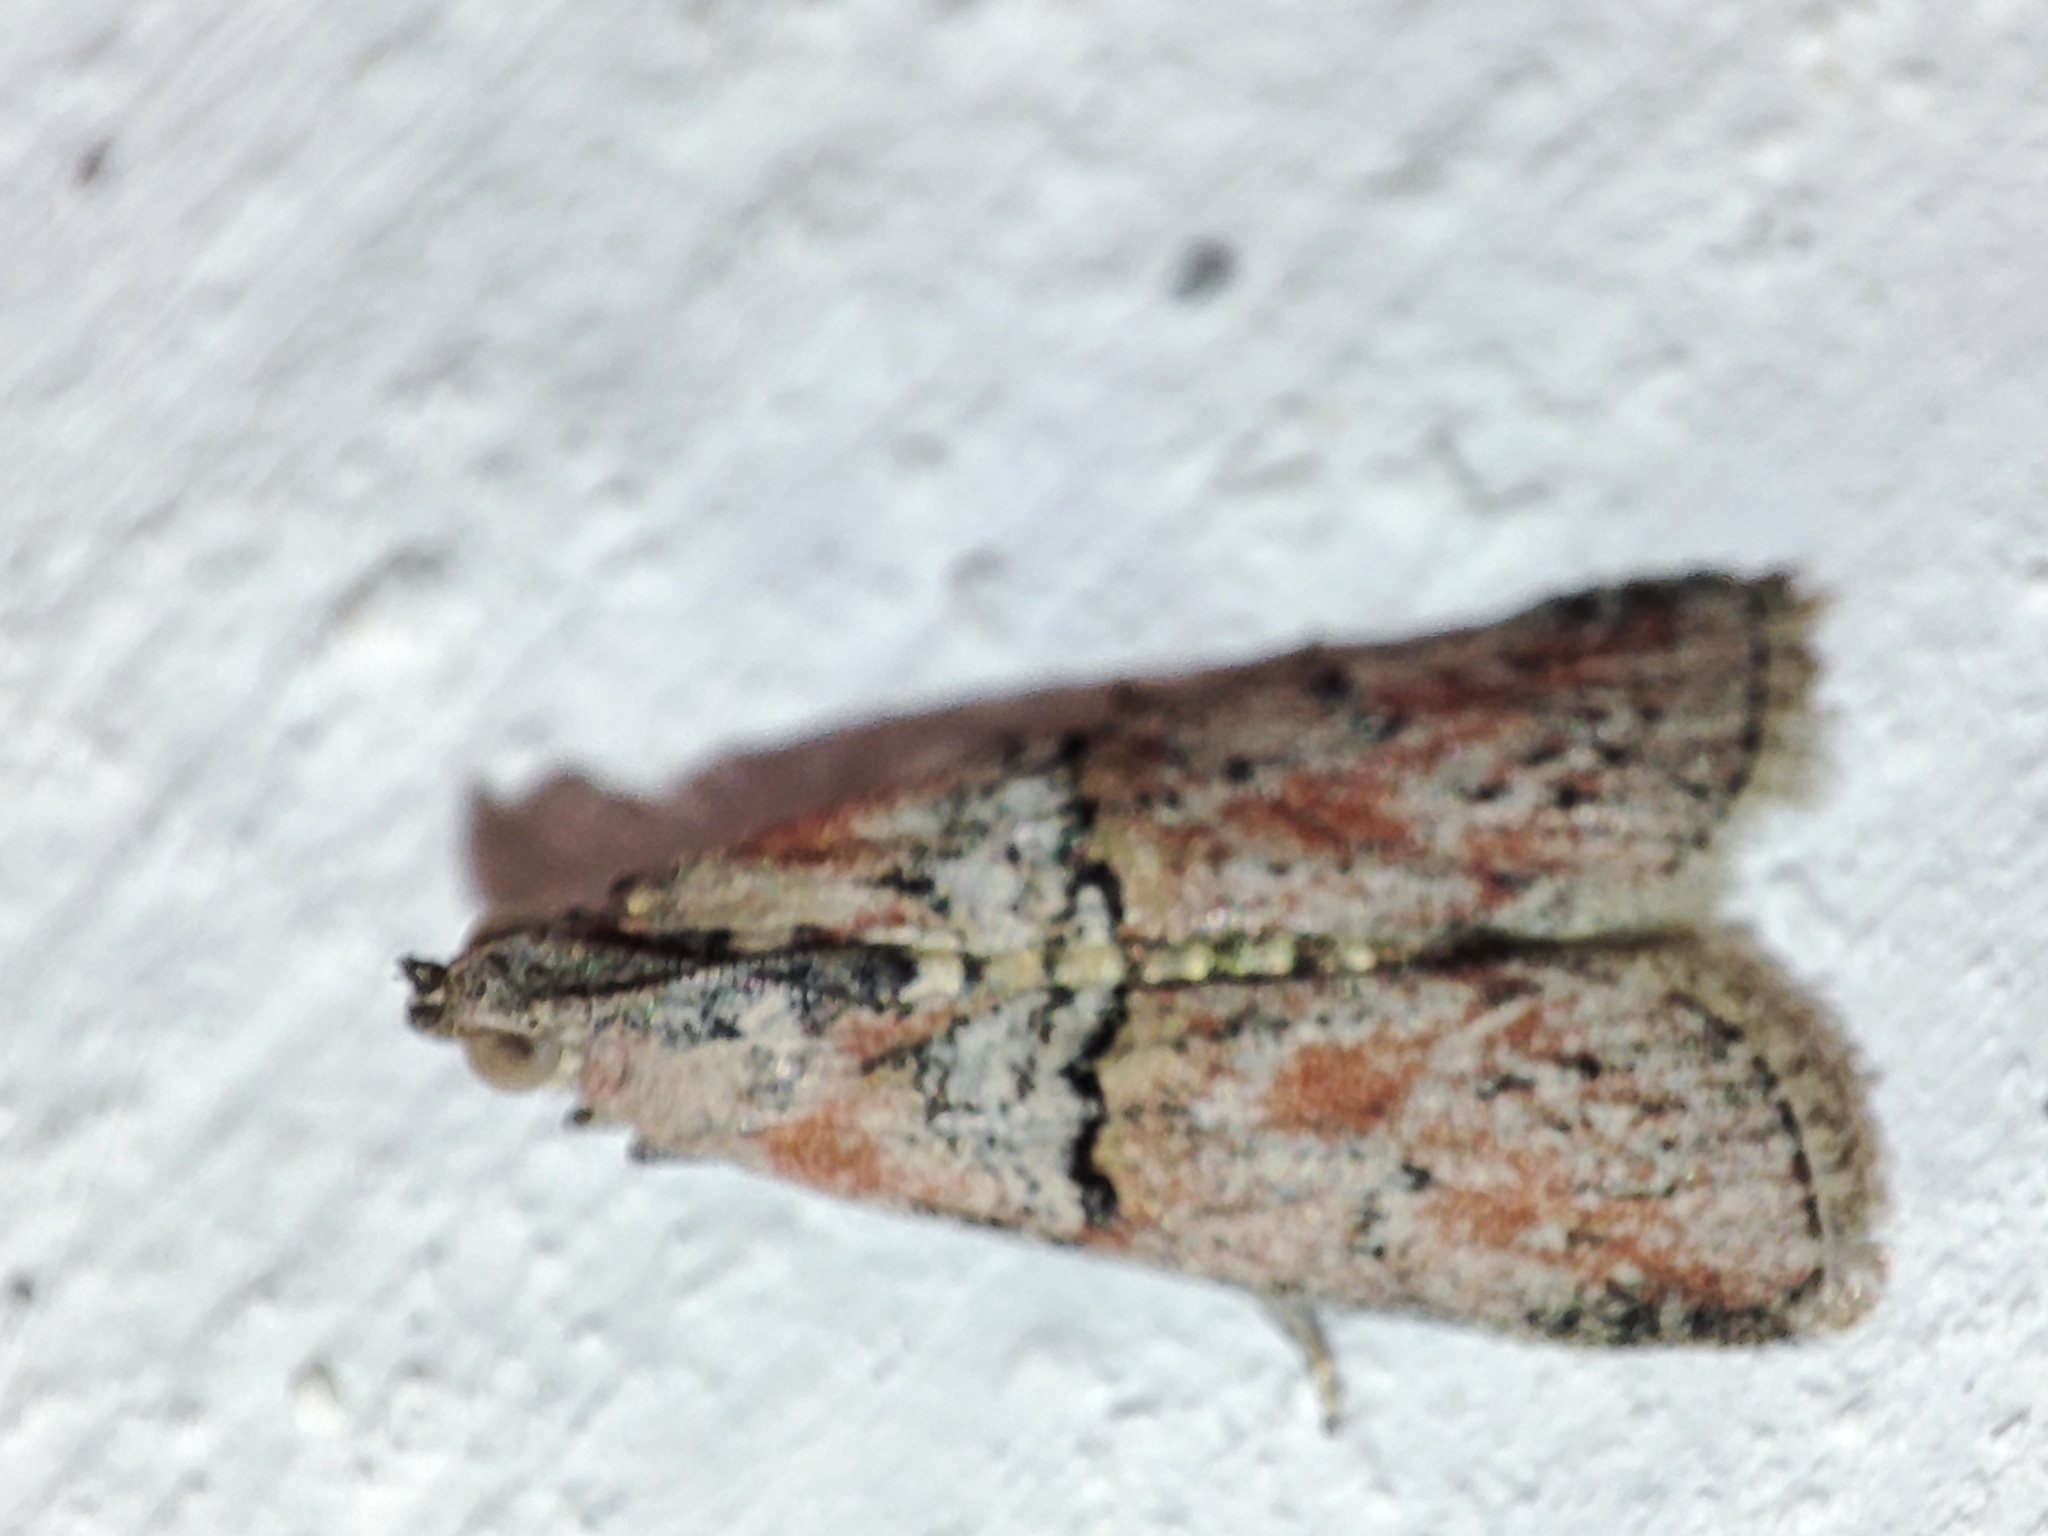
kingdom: Animalia
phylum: Arthropoda
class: Insecta
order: Lepidoptera
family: Pyralidae
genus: Merulempista
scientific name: Merulempista cingillella
